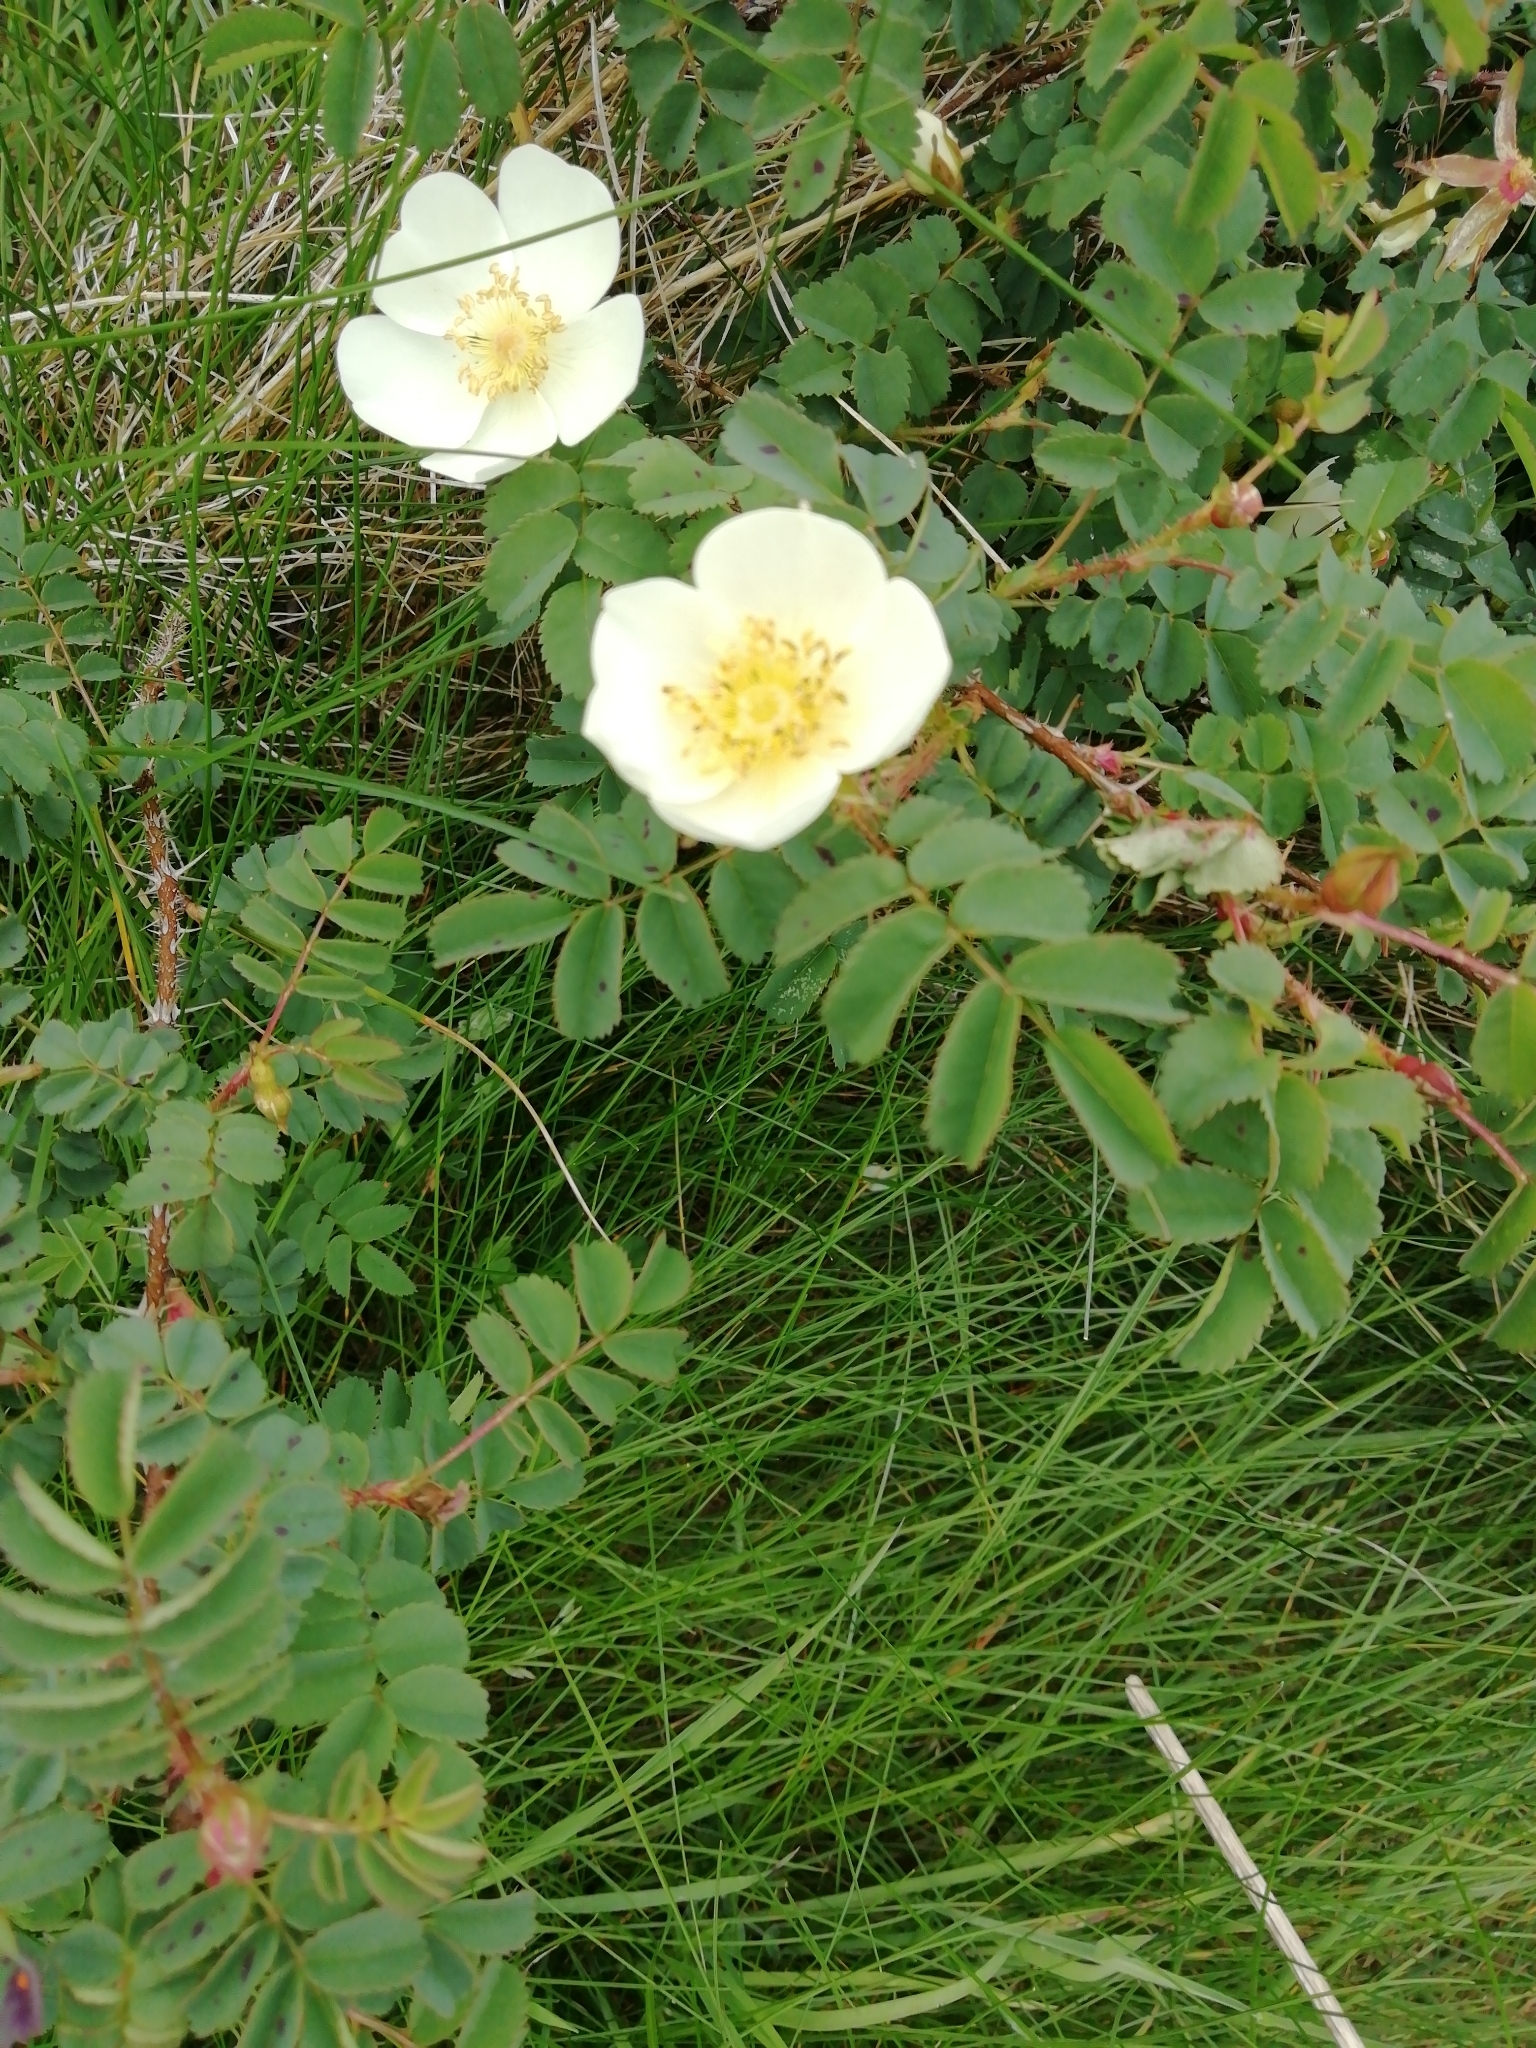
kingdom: Plantae
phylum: Tracheophyta
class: Magnoliopsida
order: Rosales
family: Rosaceae
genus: Rosa
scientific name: Rosa spinosissima
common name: Burnet rose
